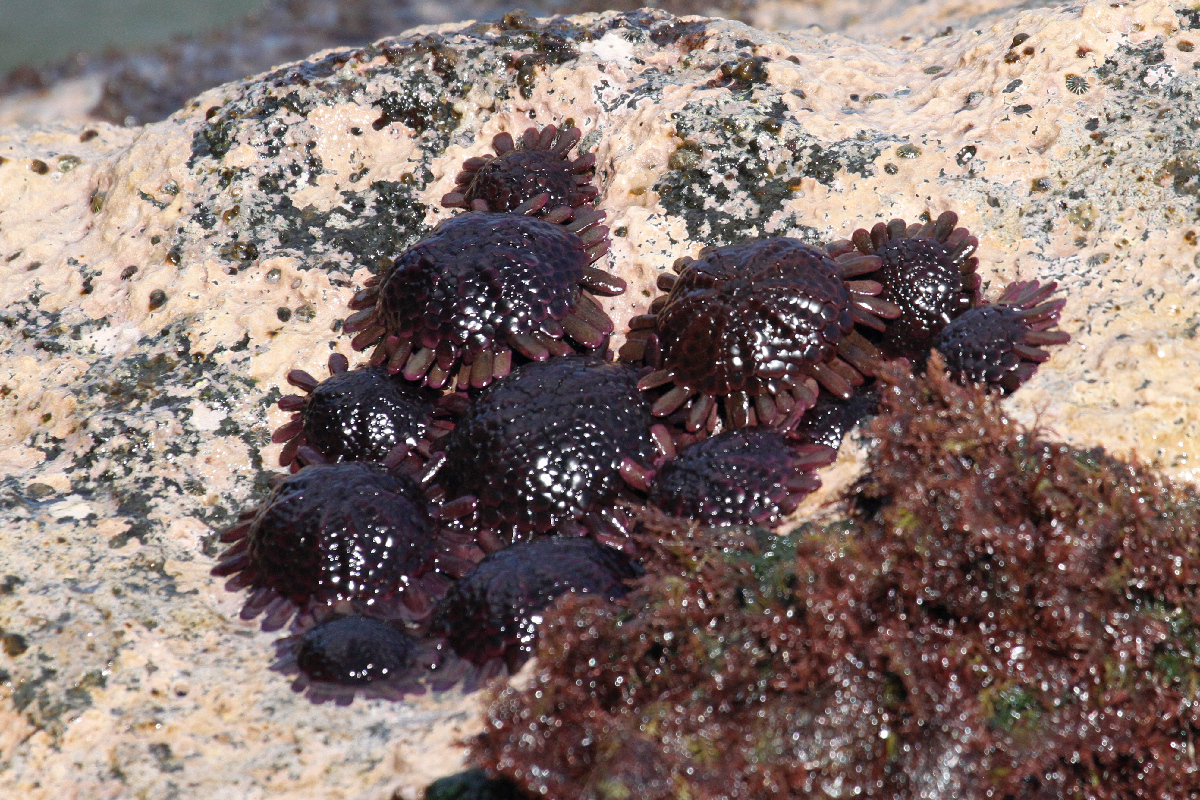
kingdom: Animalia
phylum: Echinodermata
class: Echinoidea
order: Camarodonta
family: Echinometridae
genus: Colobocentrotus
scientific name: Colobocentrotus atratus
